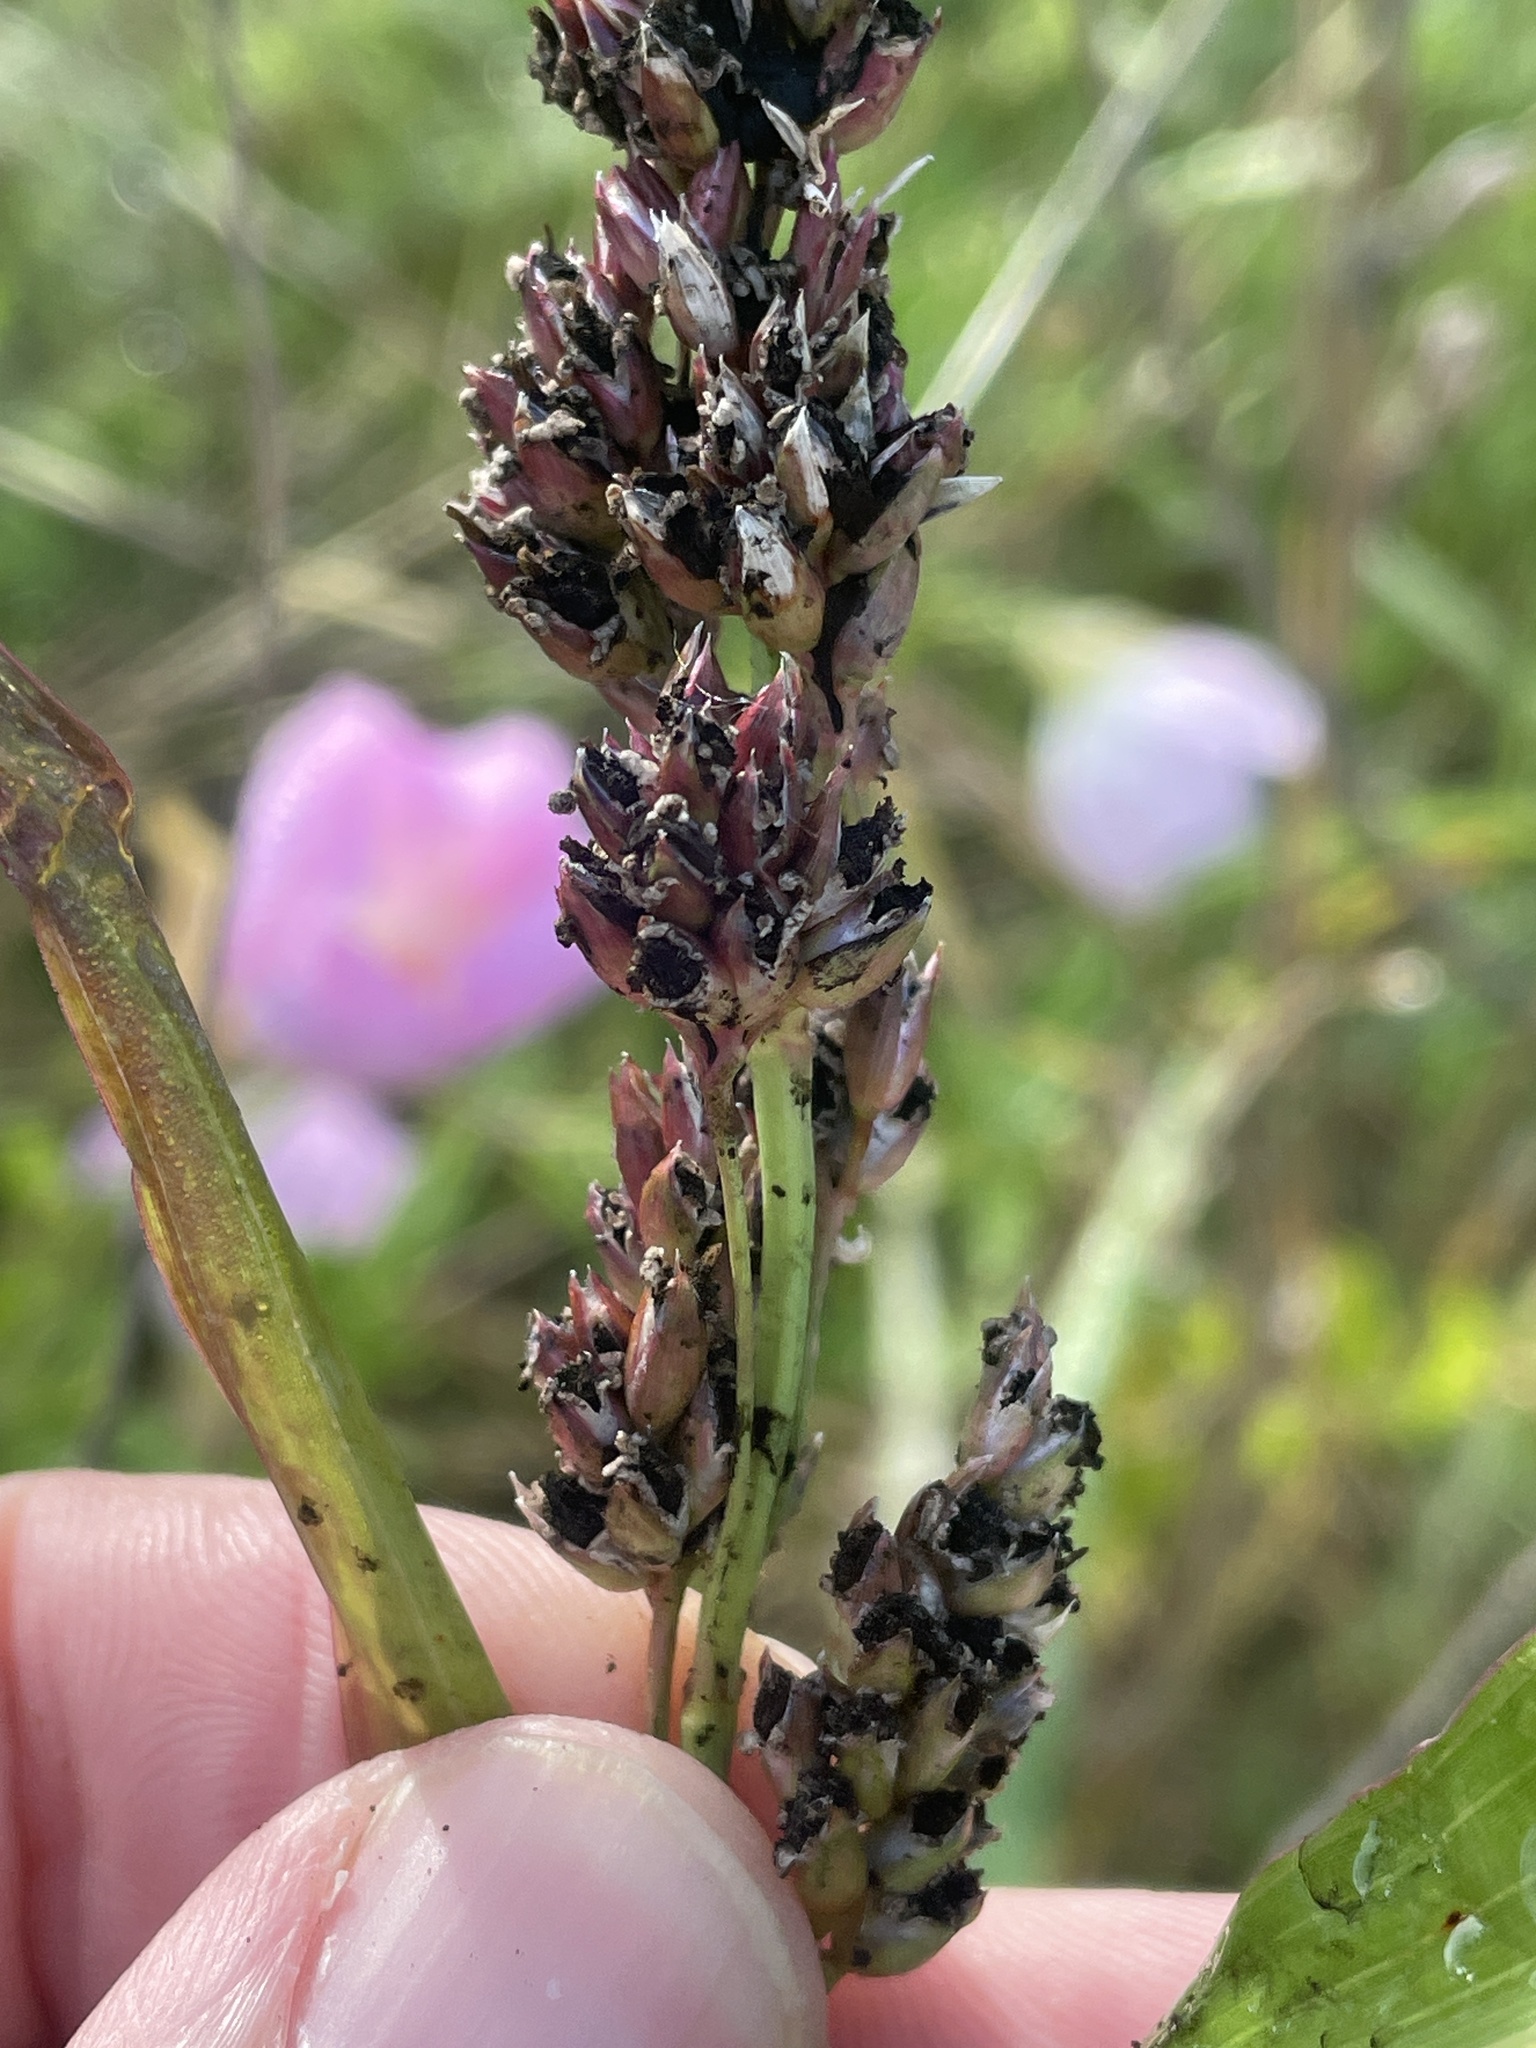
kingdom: Fungi
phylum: Basidiomycota
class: Ustilaginomycetes
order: Ustilaginales
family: Ustilaginaceae
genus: Sporisorium
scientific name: Sporisorium cruentum
